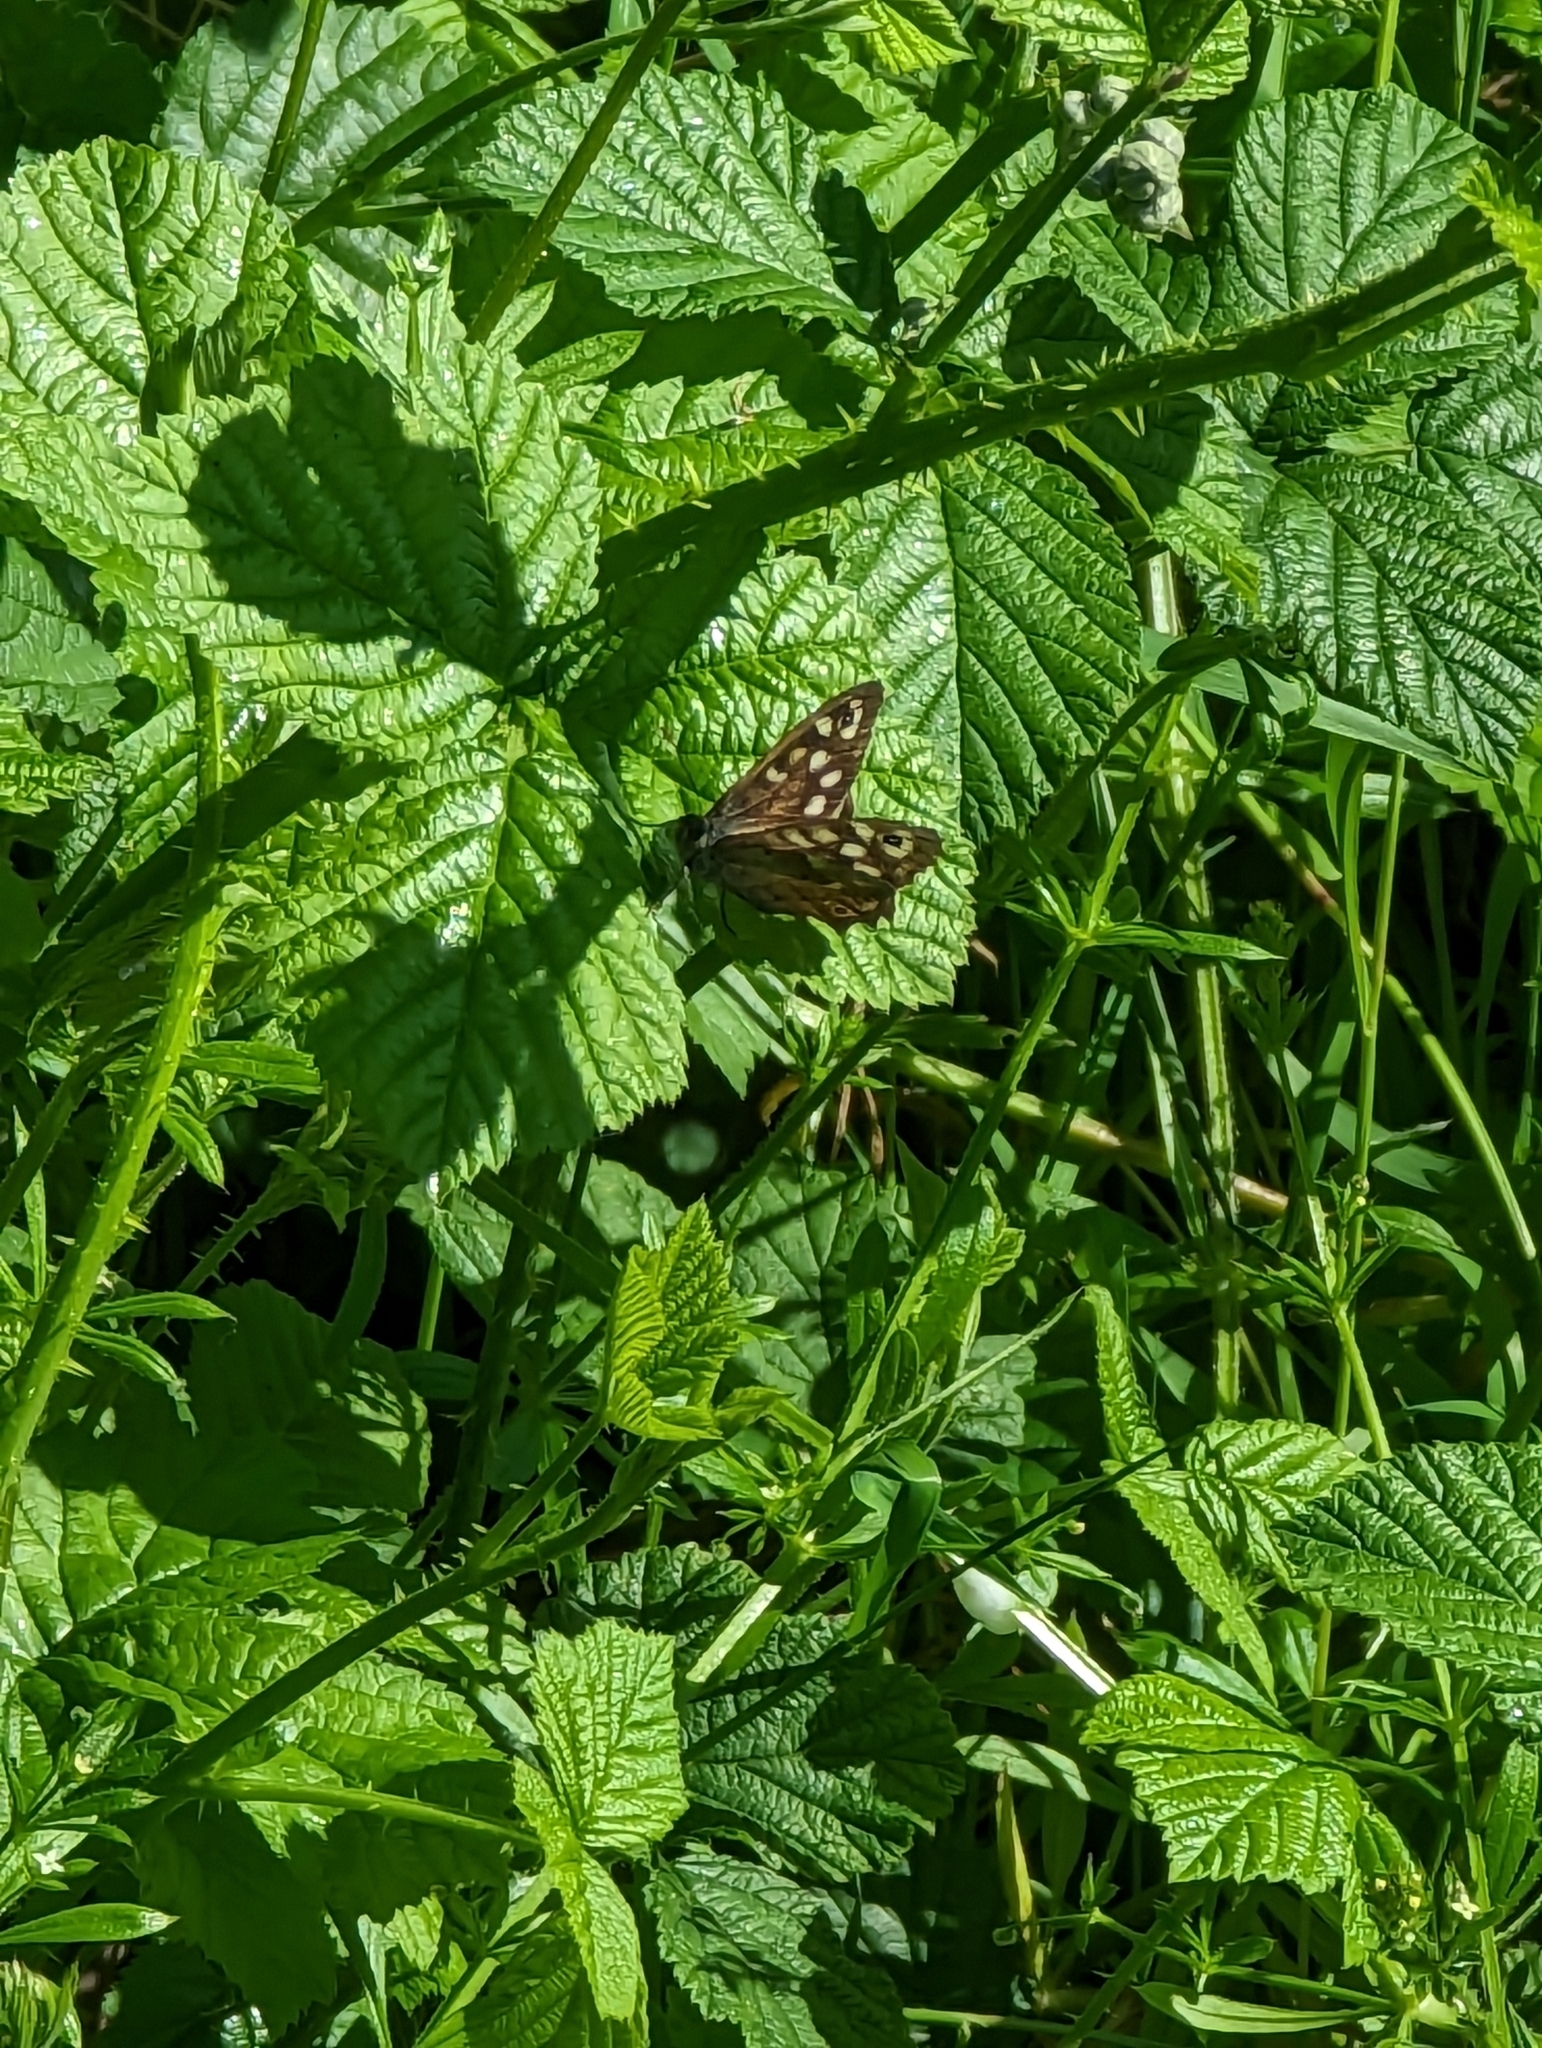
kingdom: Animalia
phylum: Arthropoda
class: Insecta
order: Lepidoptera
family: Nymphalidae
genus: Pararge
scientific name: Pararge aegeria
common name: Speckled wood
